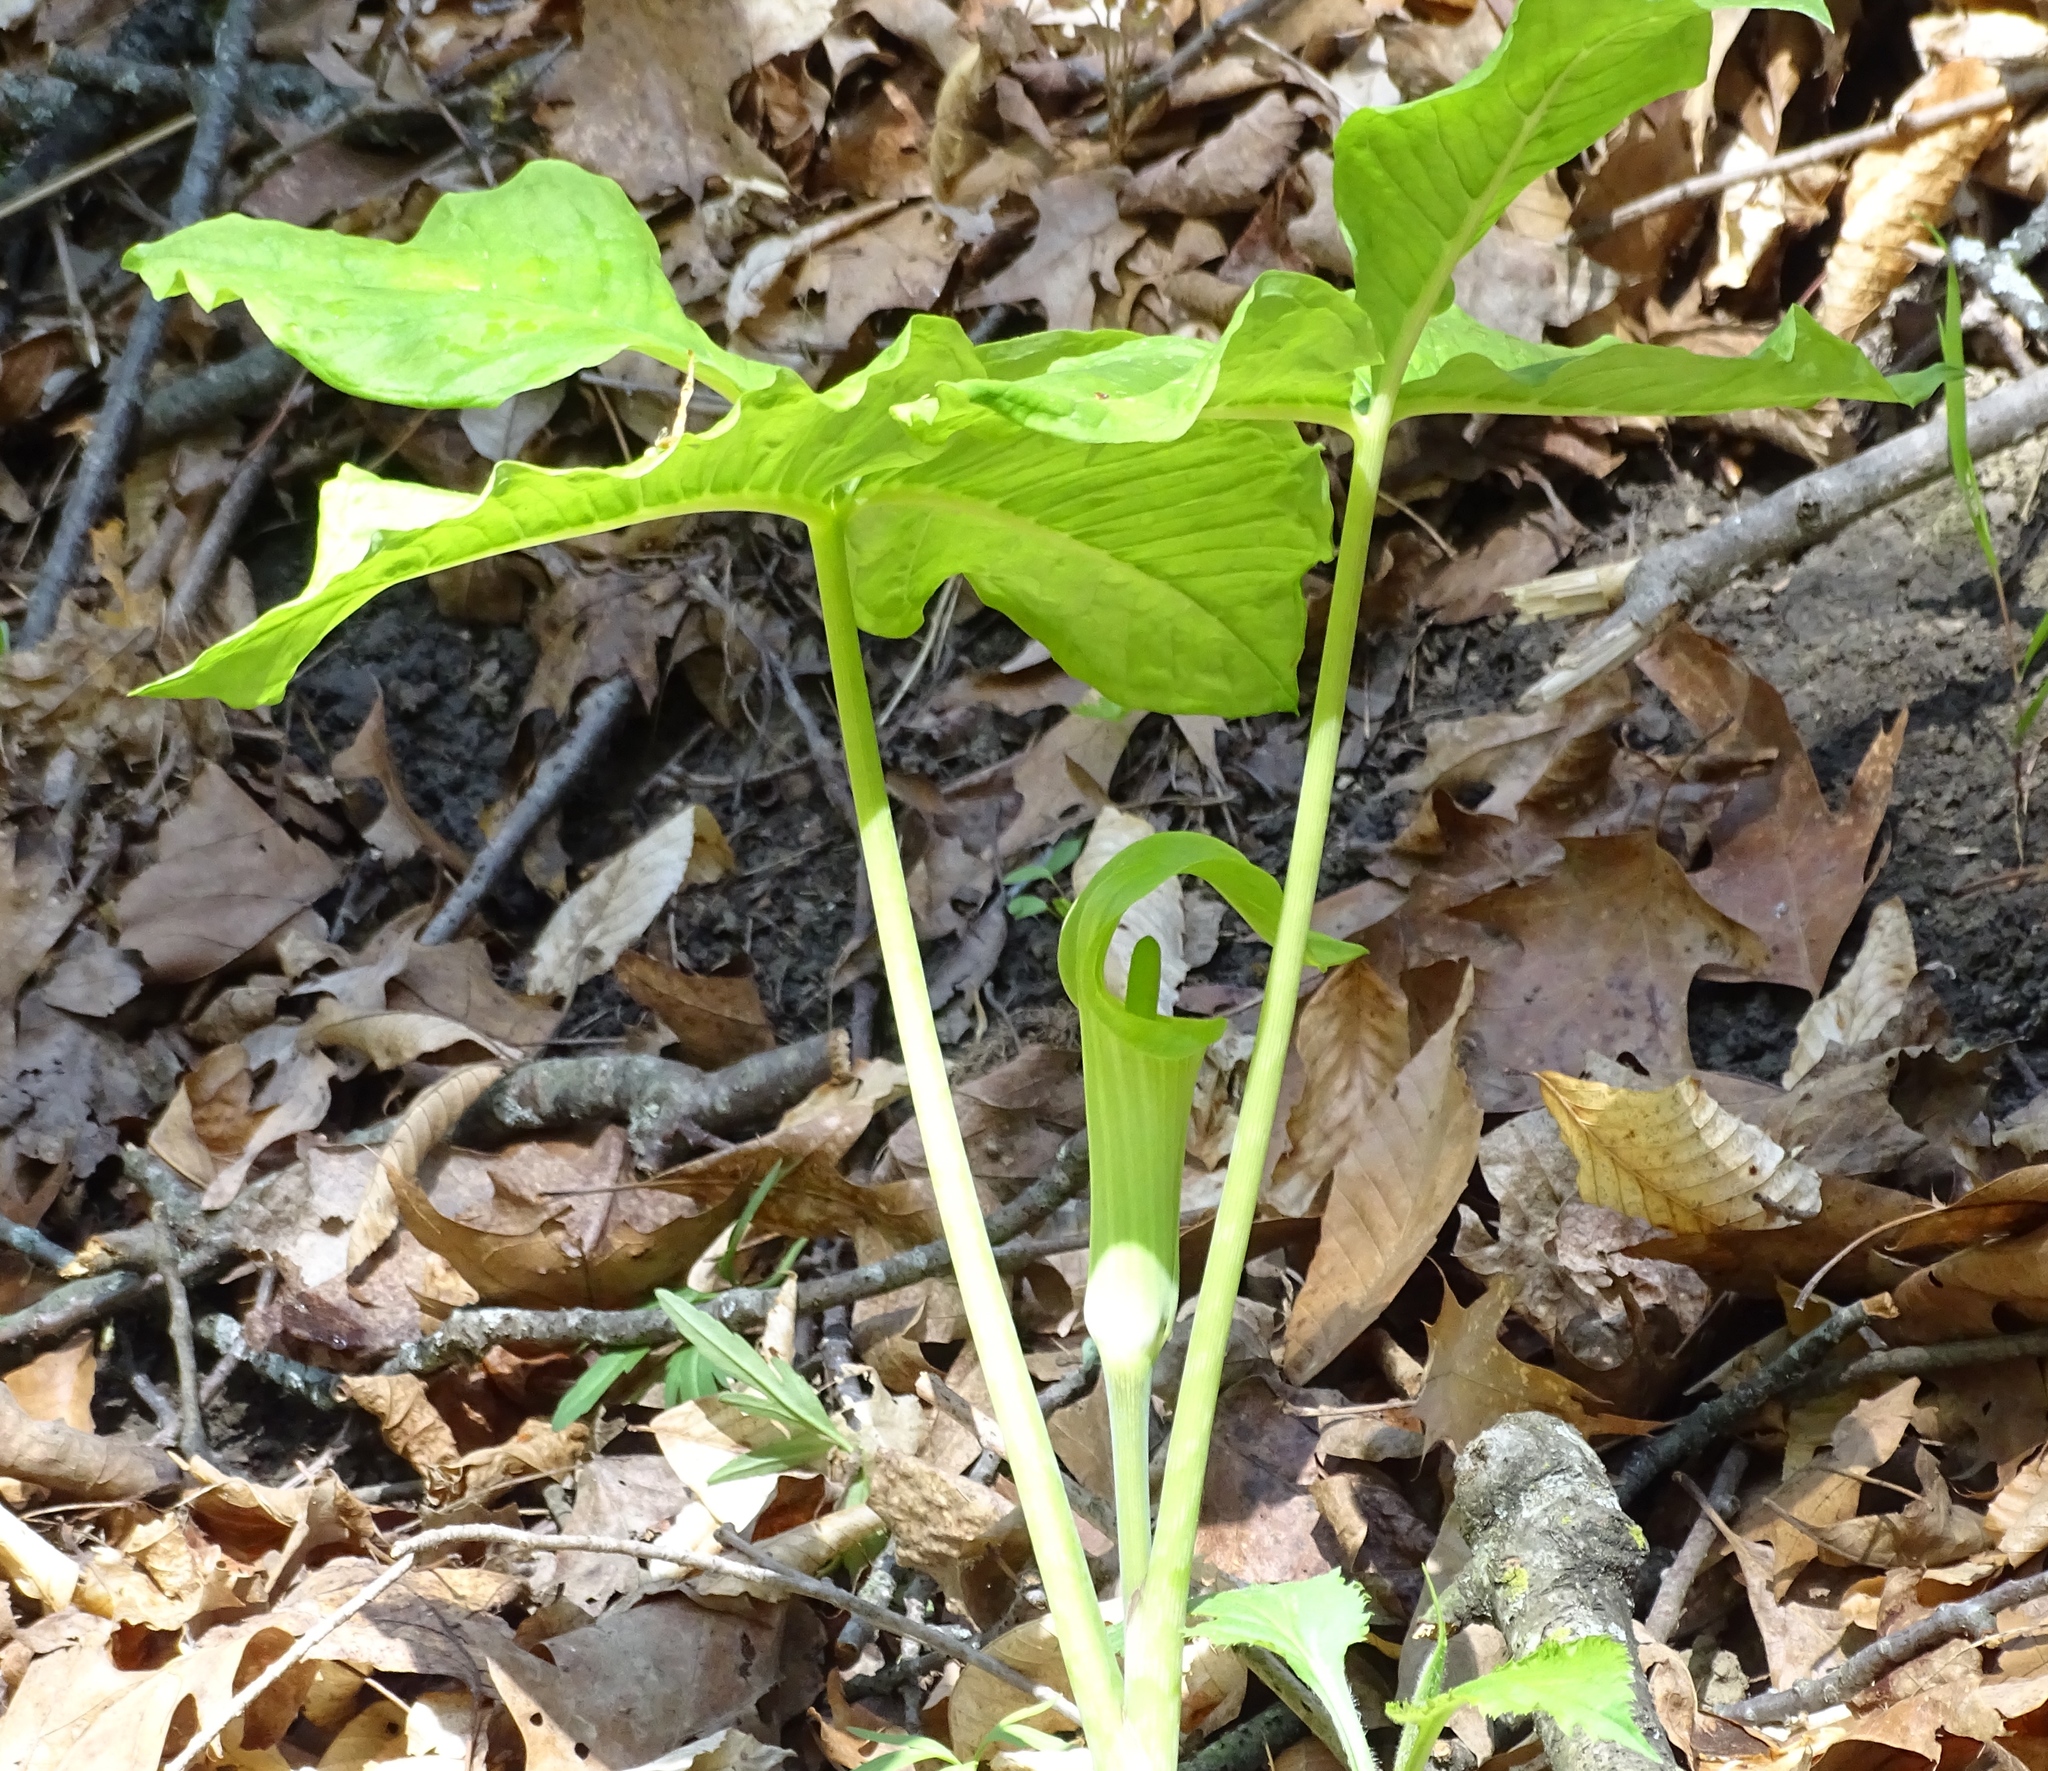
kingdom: Plantae
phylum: Tracheophyta
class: Liliopsida
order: Alismatales
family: Araceae
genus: Arisaema
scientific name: Arisaema triphyllum
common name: Jack-in-the-pulpit
